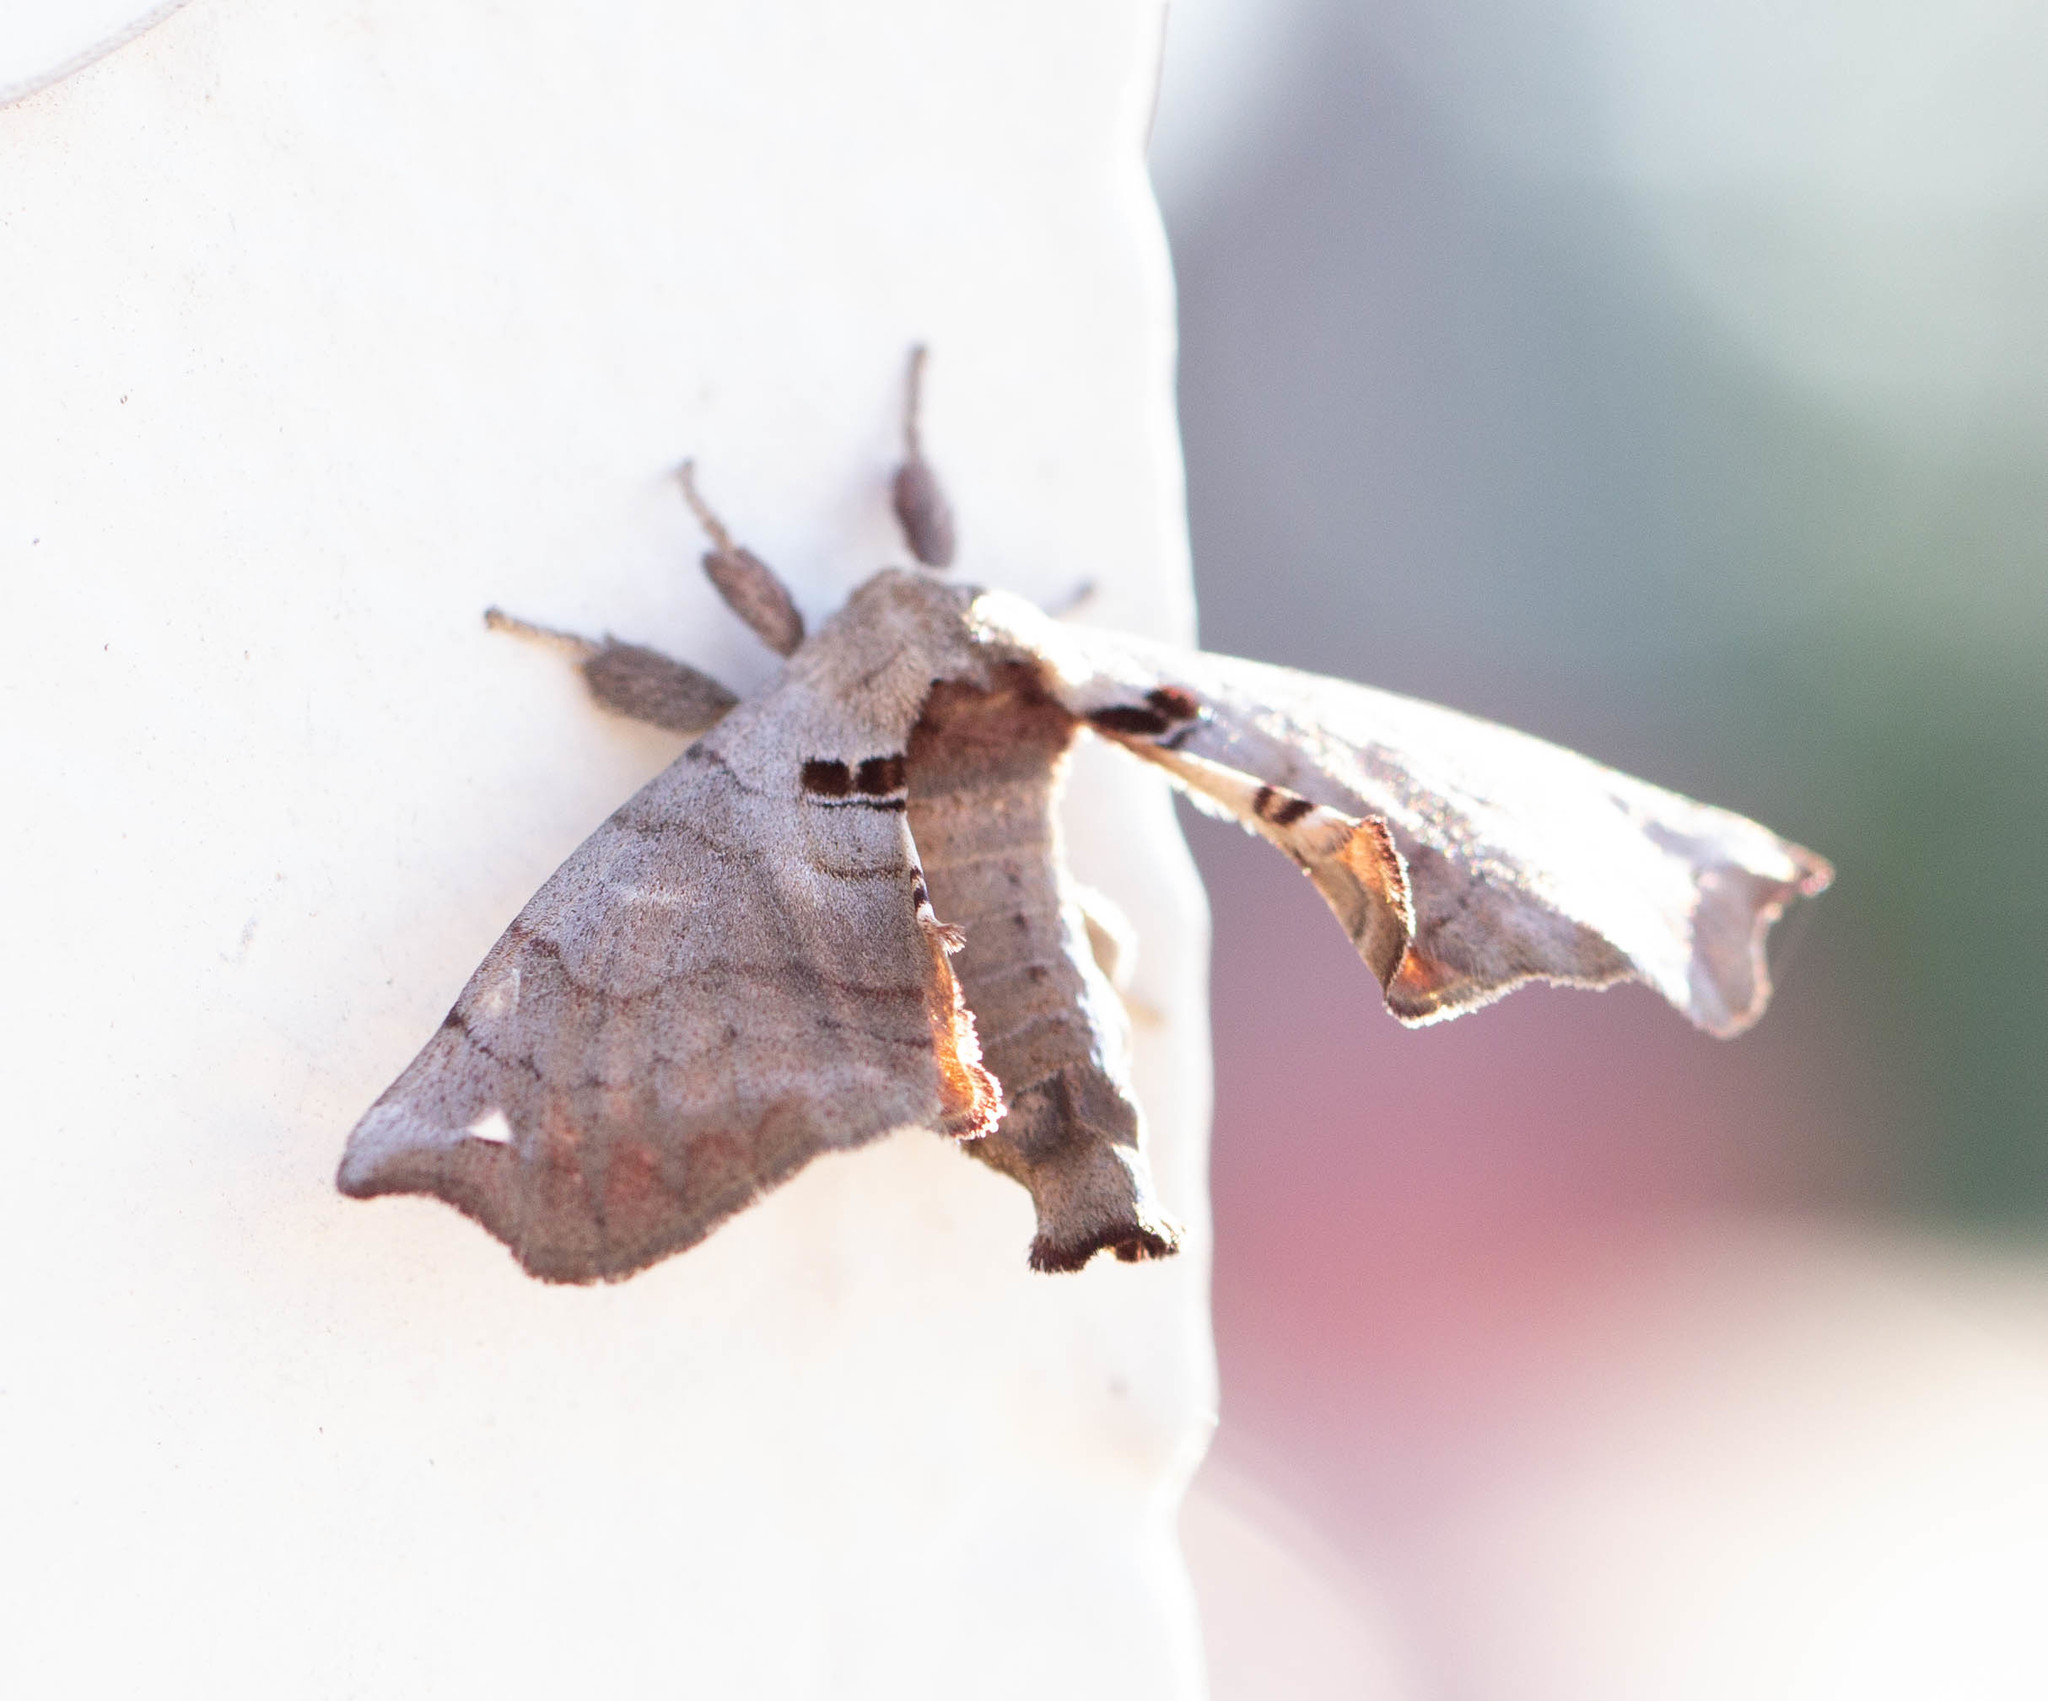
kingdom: Animalia
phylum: Arthropoda
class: Insecta
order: Lepidoptera
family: Apatelodidae
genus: Hygrochroa
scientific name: Hygrochroa Apatelodes torrefacta
